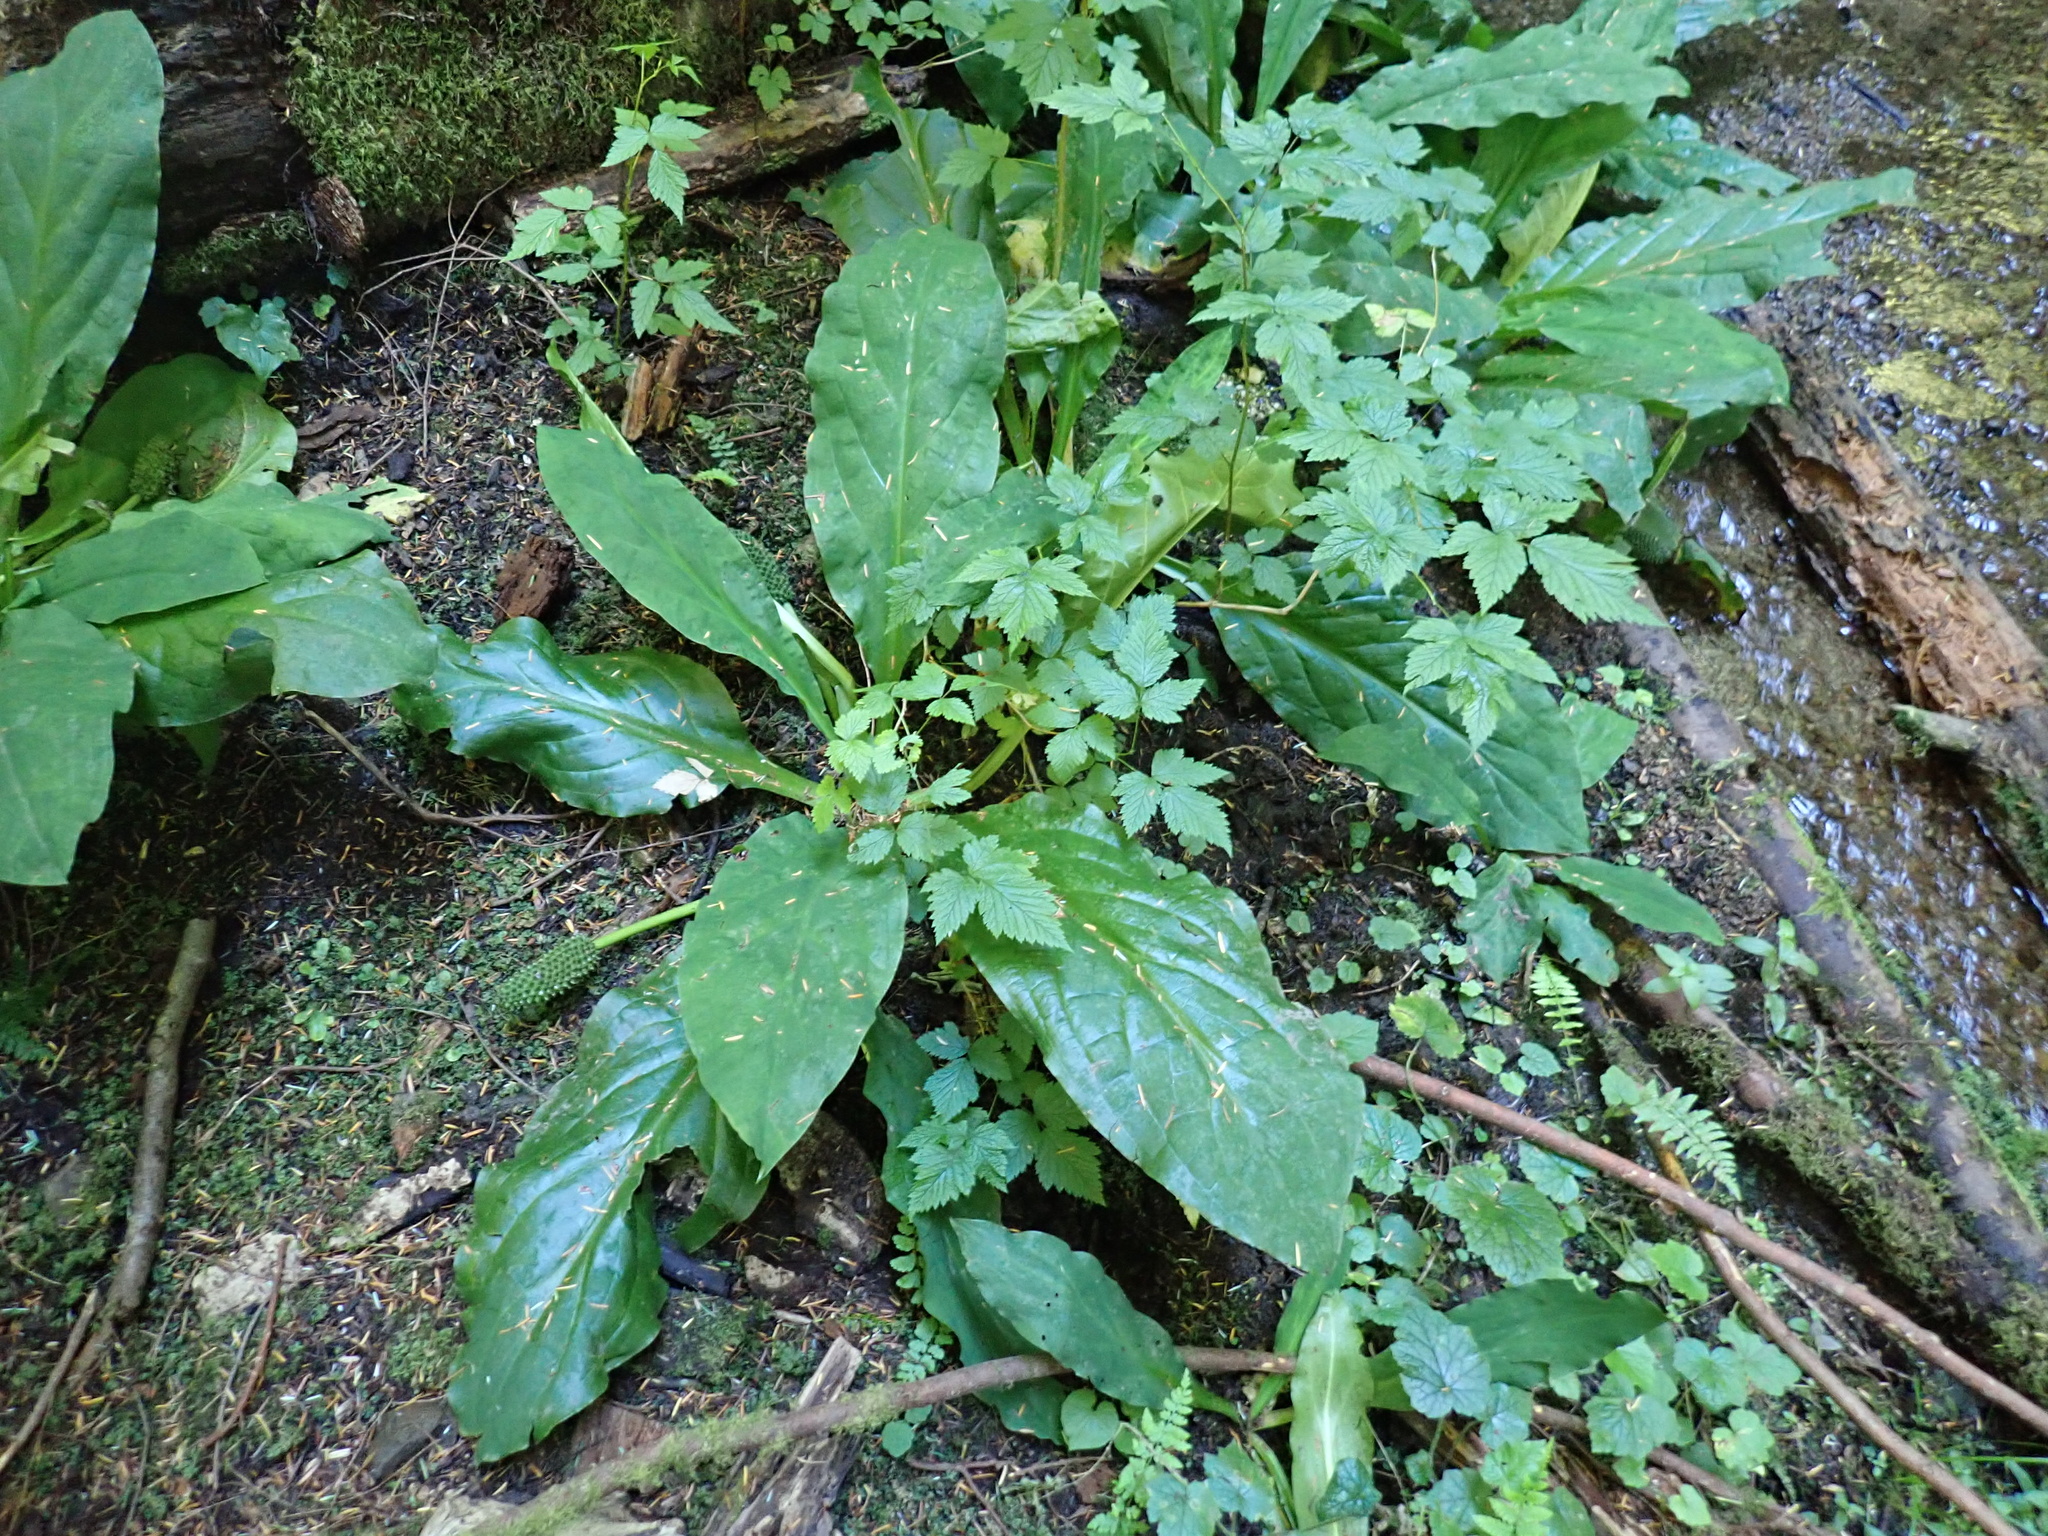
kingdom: Plantae
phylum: Tracheophyta
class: Liliopsida
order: Alismatales
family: Araceae
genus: Lysichiton
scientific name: Lysichiton americanus
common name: American skunk cabbage
